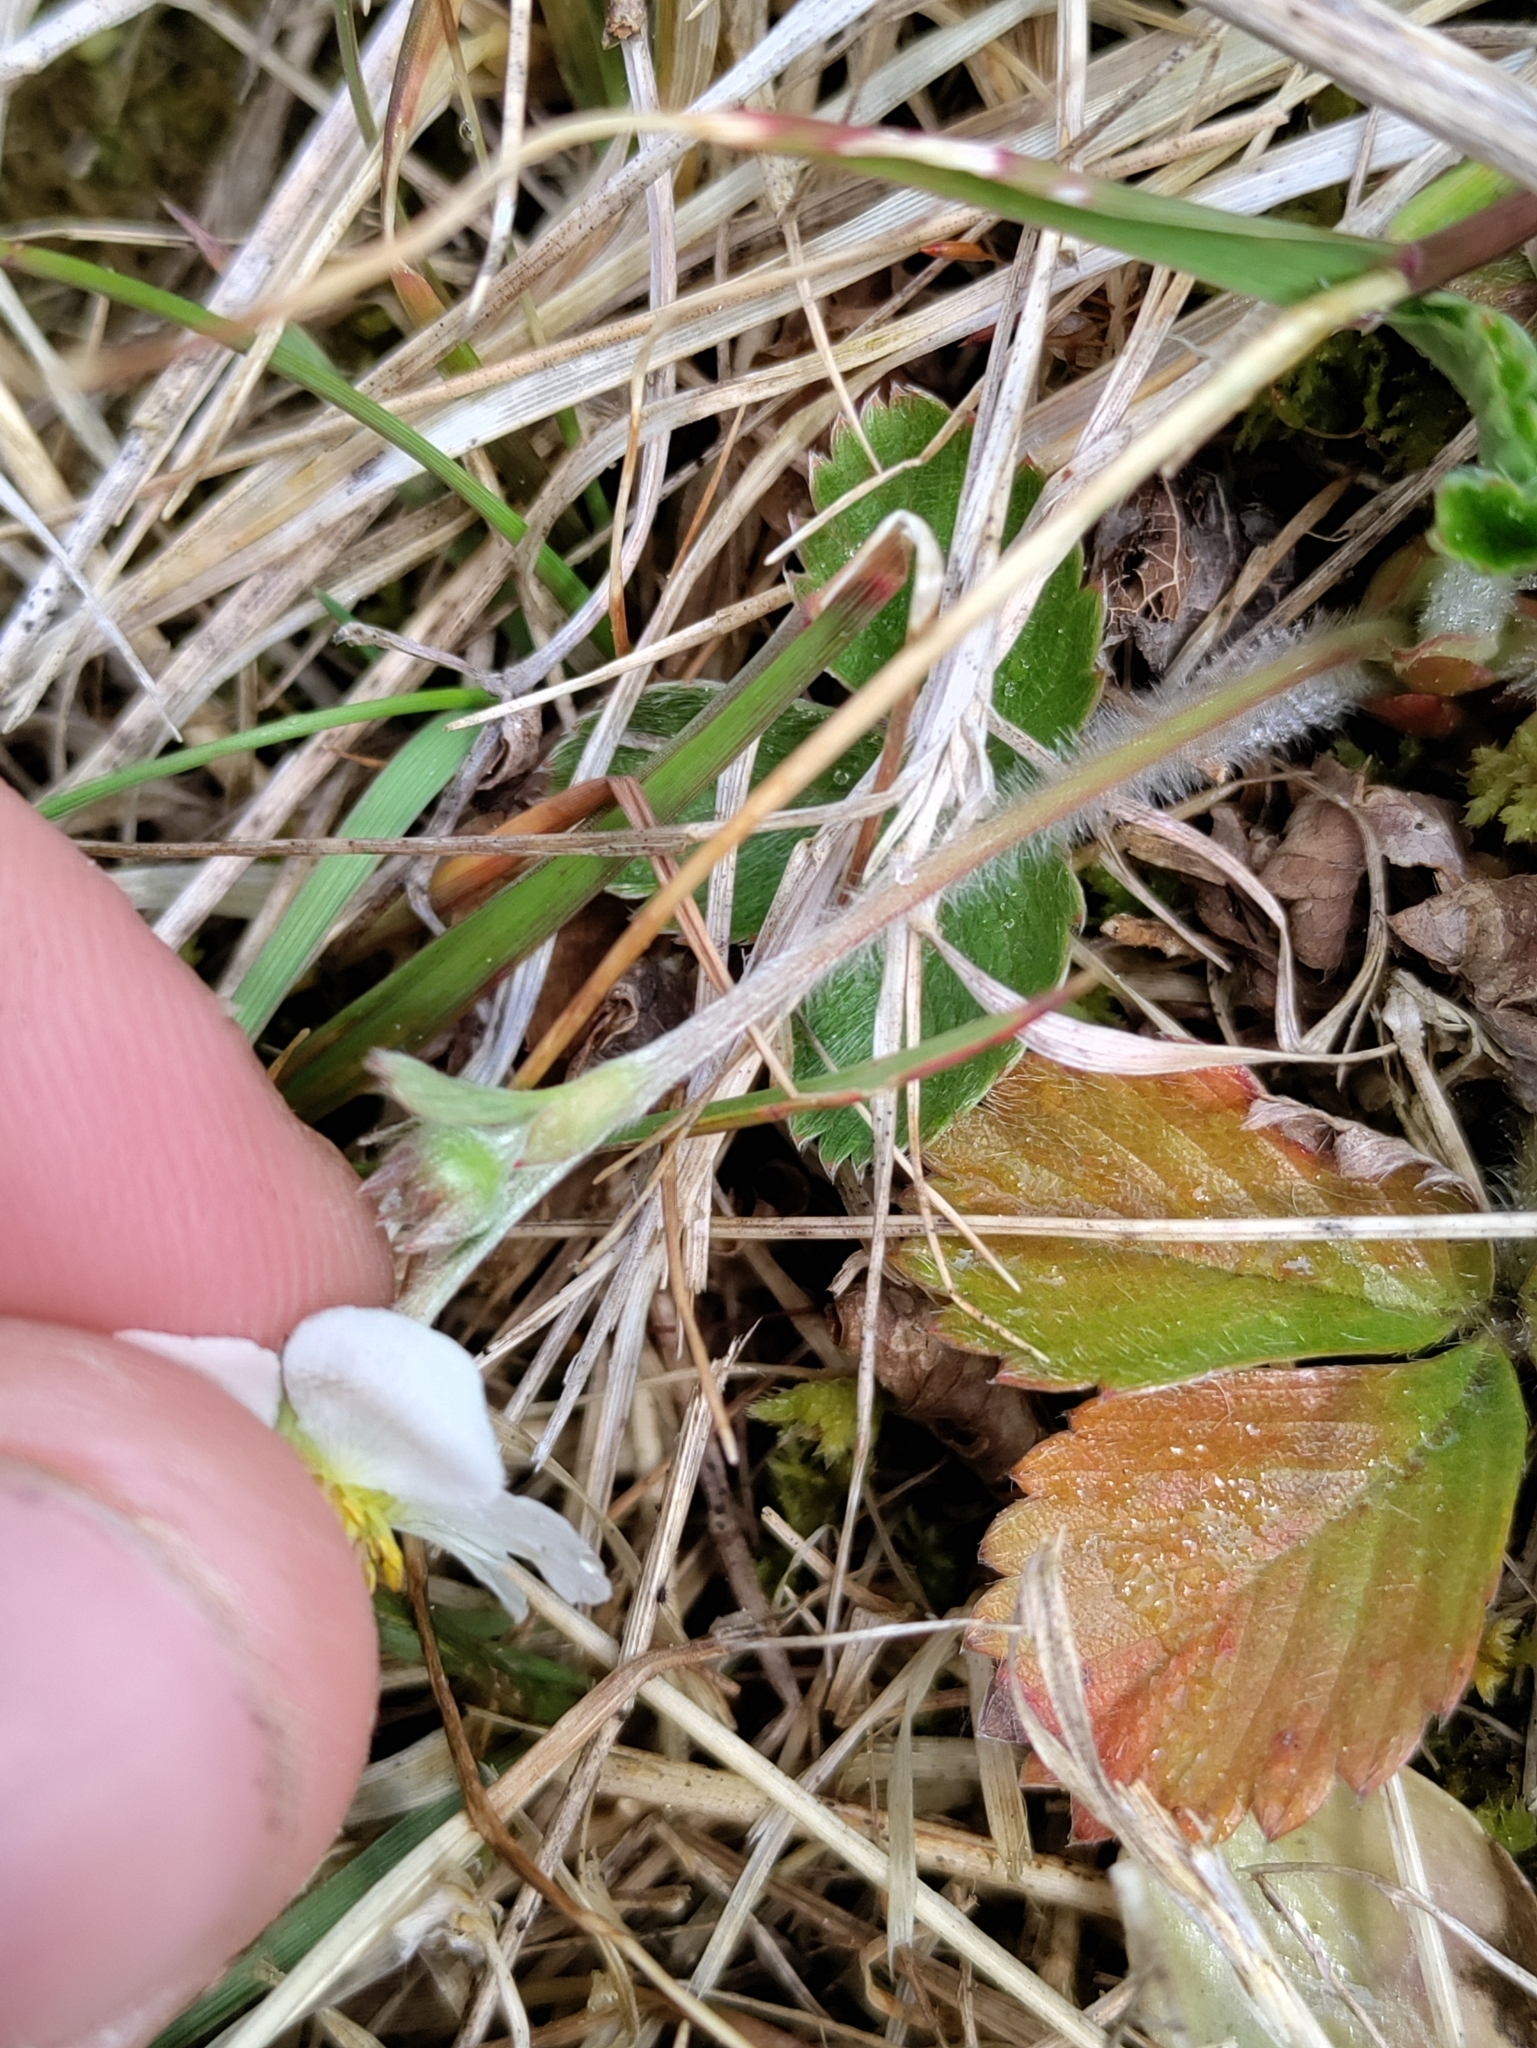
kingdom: Plantae
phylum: Tracheophyta
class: Magnoliopsida
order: Rosales
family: Rosaceae
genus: Fragaria
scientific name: Fragaria viridis
